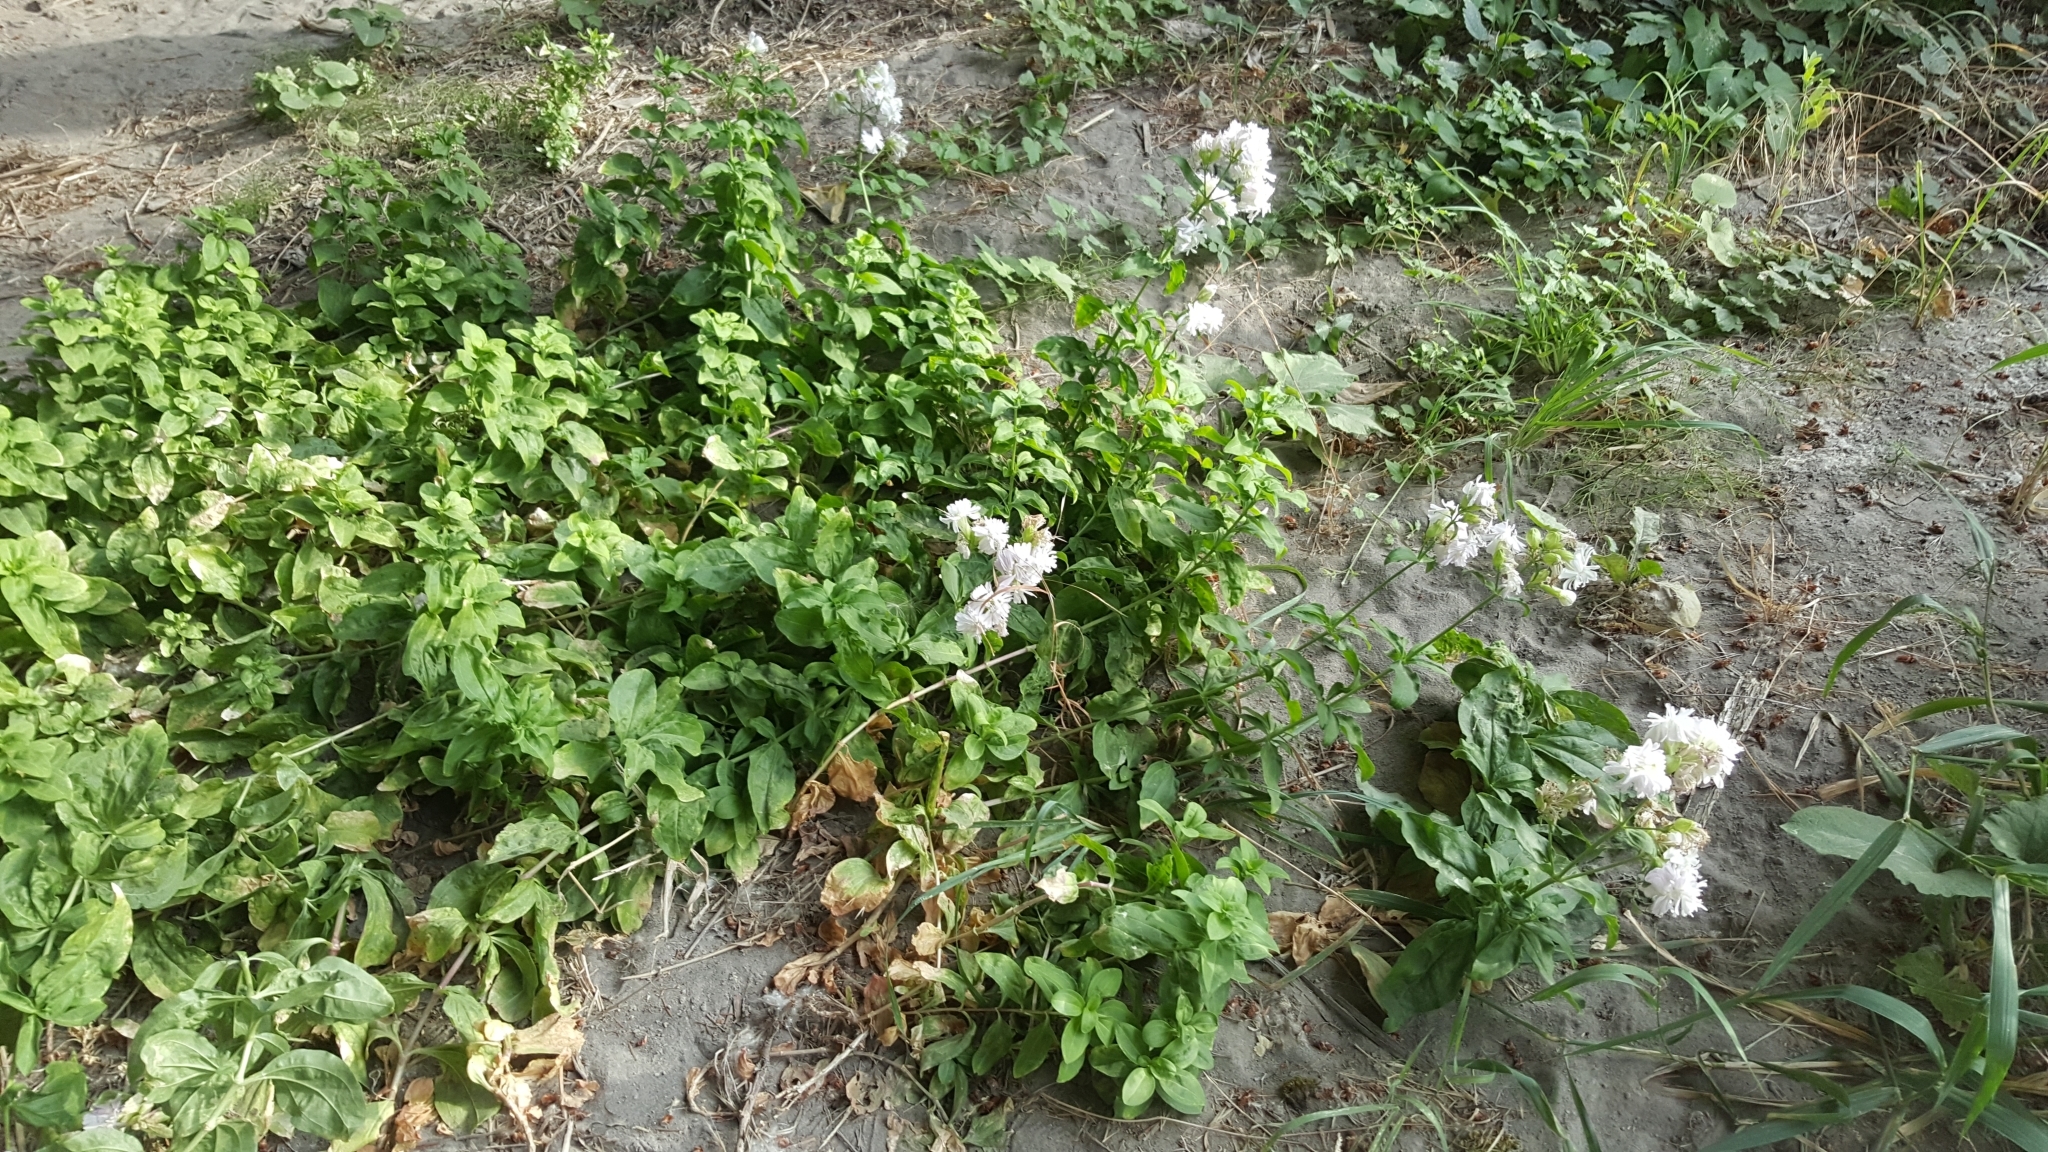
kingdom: Plantae
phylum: Tracheophyta
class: Magnoliopsida
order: Caryophyllales
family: Caryophyllaceae
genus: Saponaria
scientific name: Saponaria officinalis
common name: Soapwort
